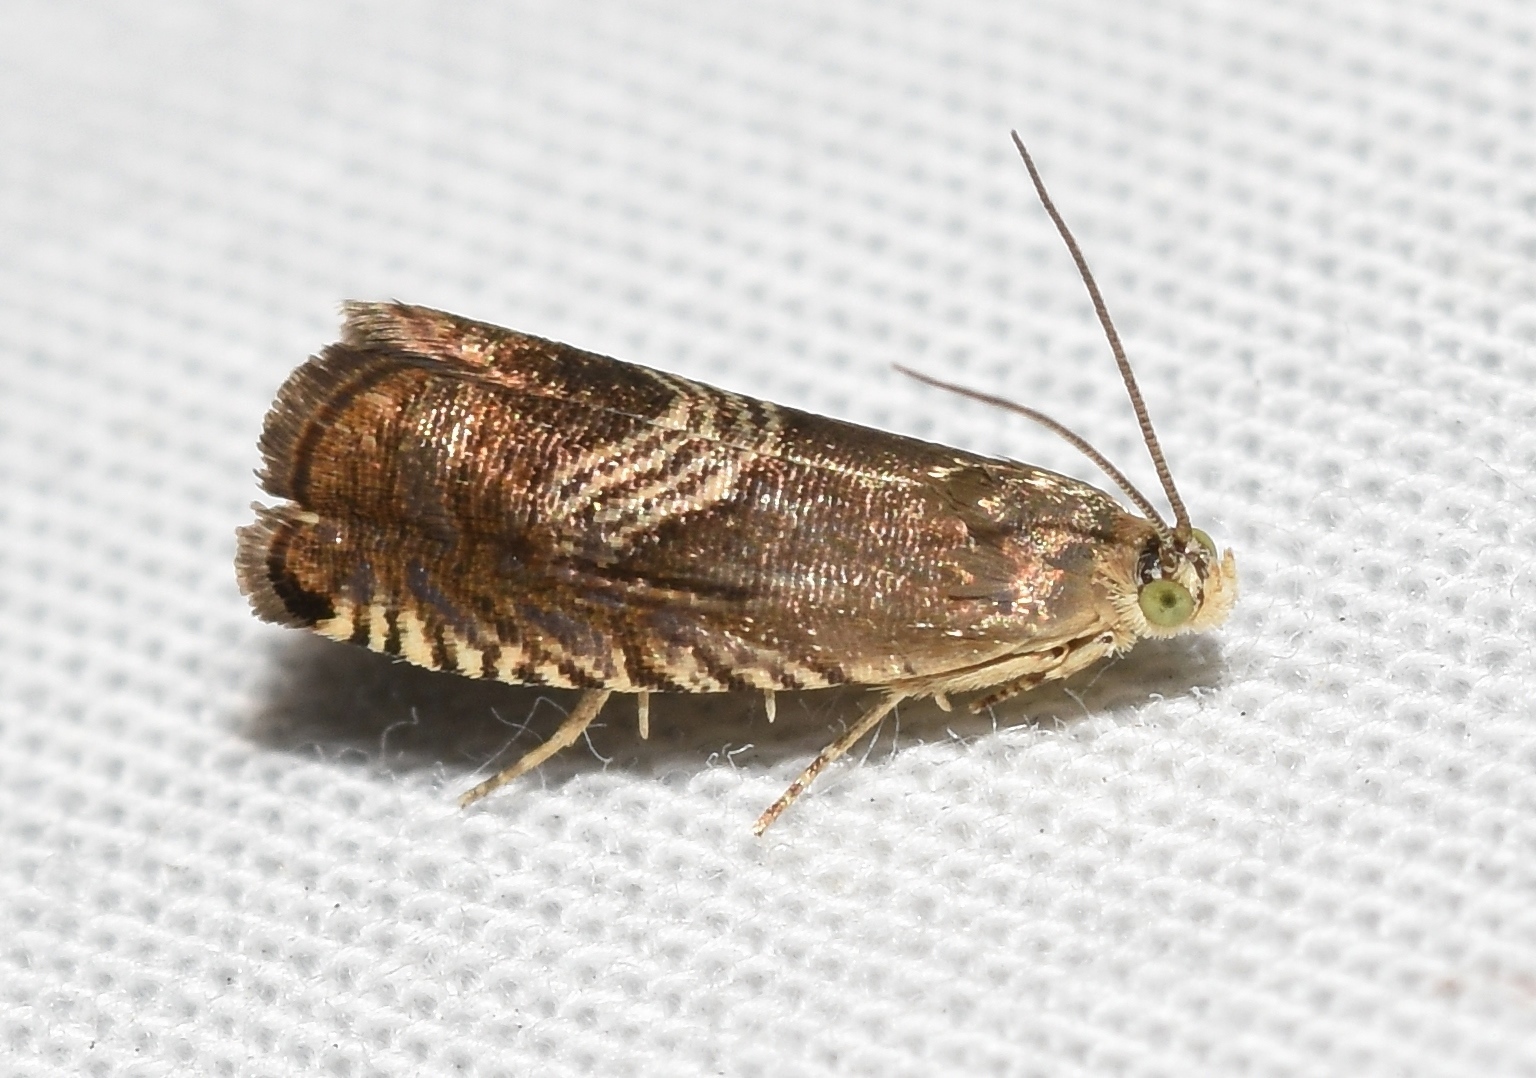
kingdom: Animalia
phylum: Arthropoda
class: Insecta
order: Lepidoptera
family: Tortricidae
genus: Grapholita
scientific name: Grapholita tristrigana
